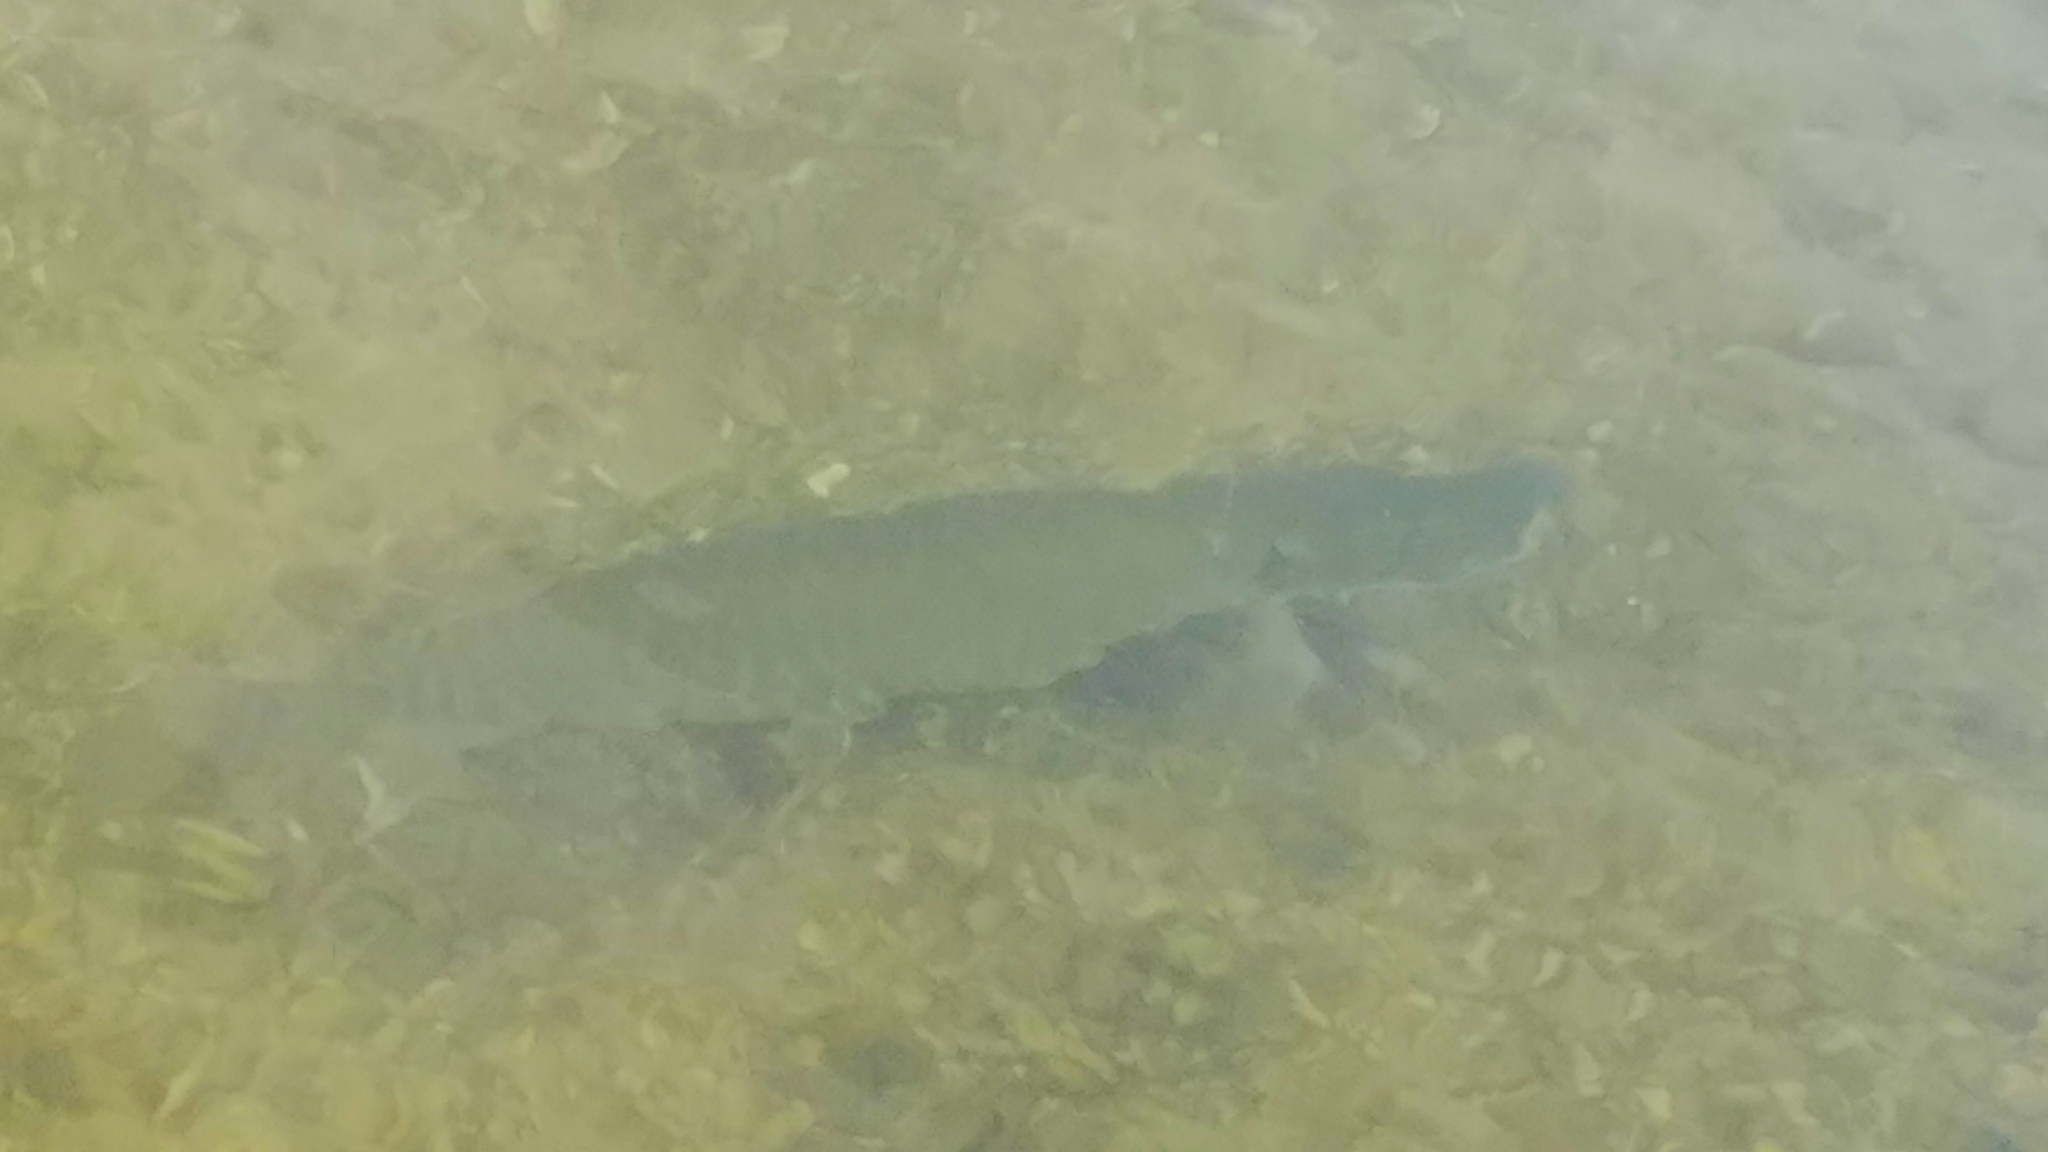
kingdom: Animalia
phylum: Chordata
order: Esociformes
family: Esocidae
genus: Esox
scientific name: Esox masquinongy
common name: Muskellunge
